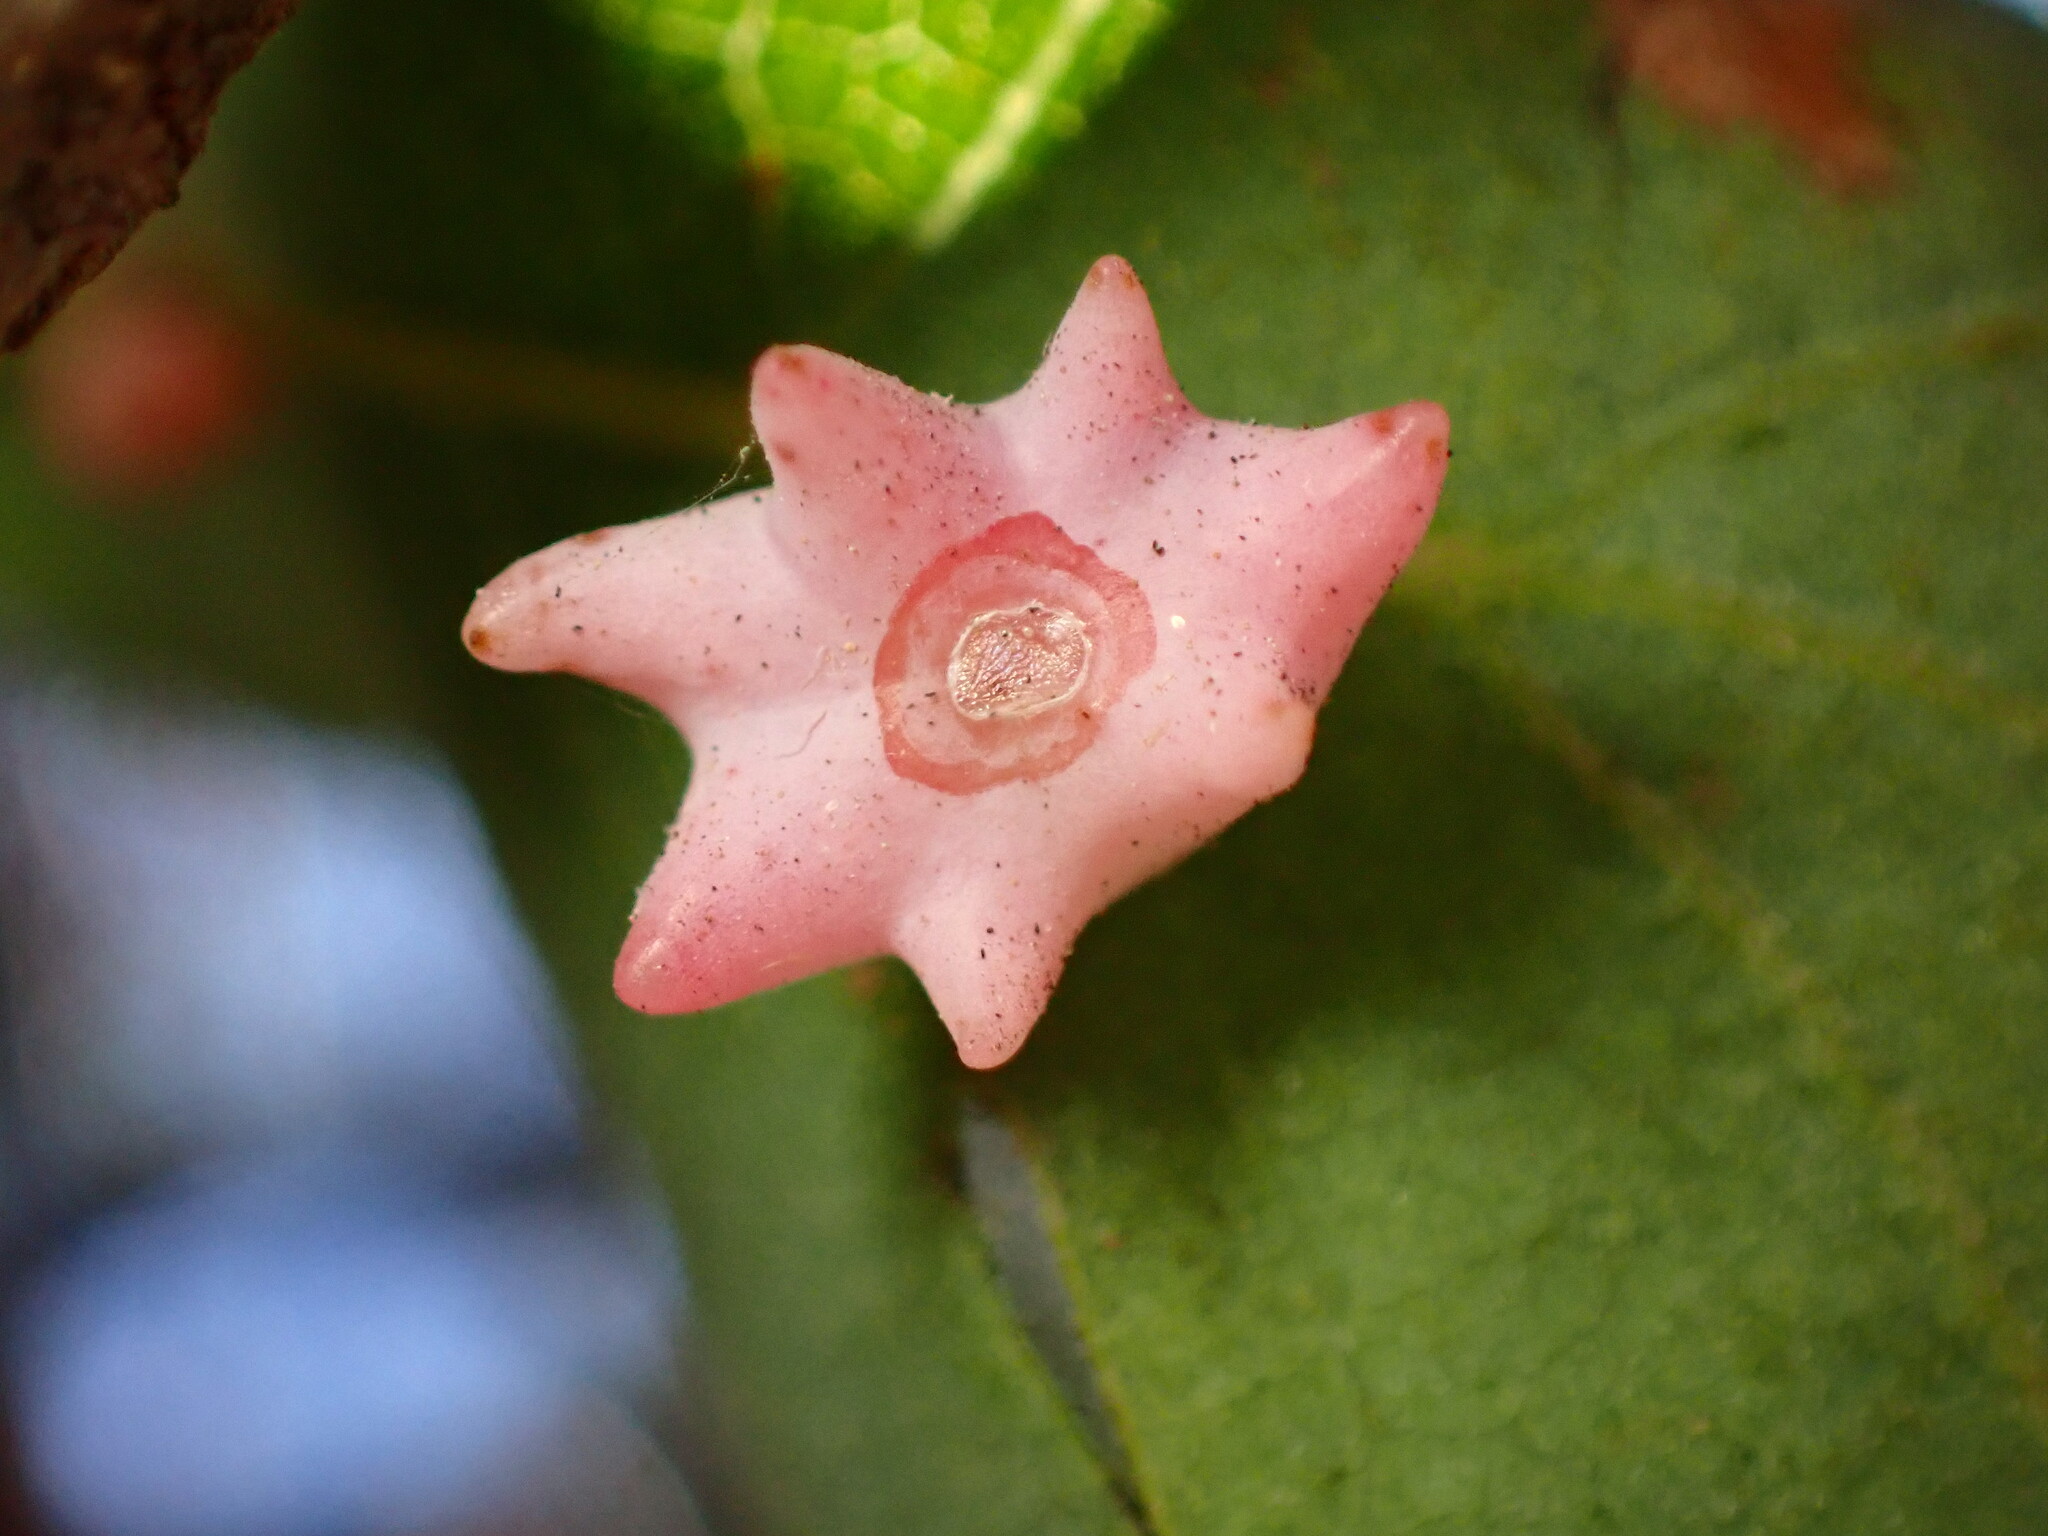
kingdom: Animalia
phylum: Arthropoda
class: Insecta
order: Hymenoptera
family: Cynipidae
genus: Cynips
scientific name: Cynips douglasi
